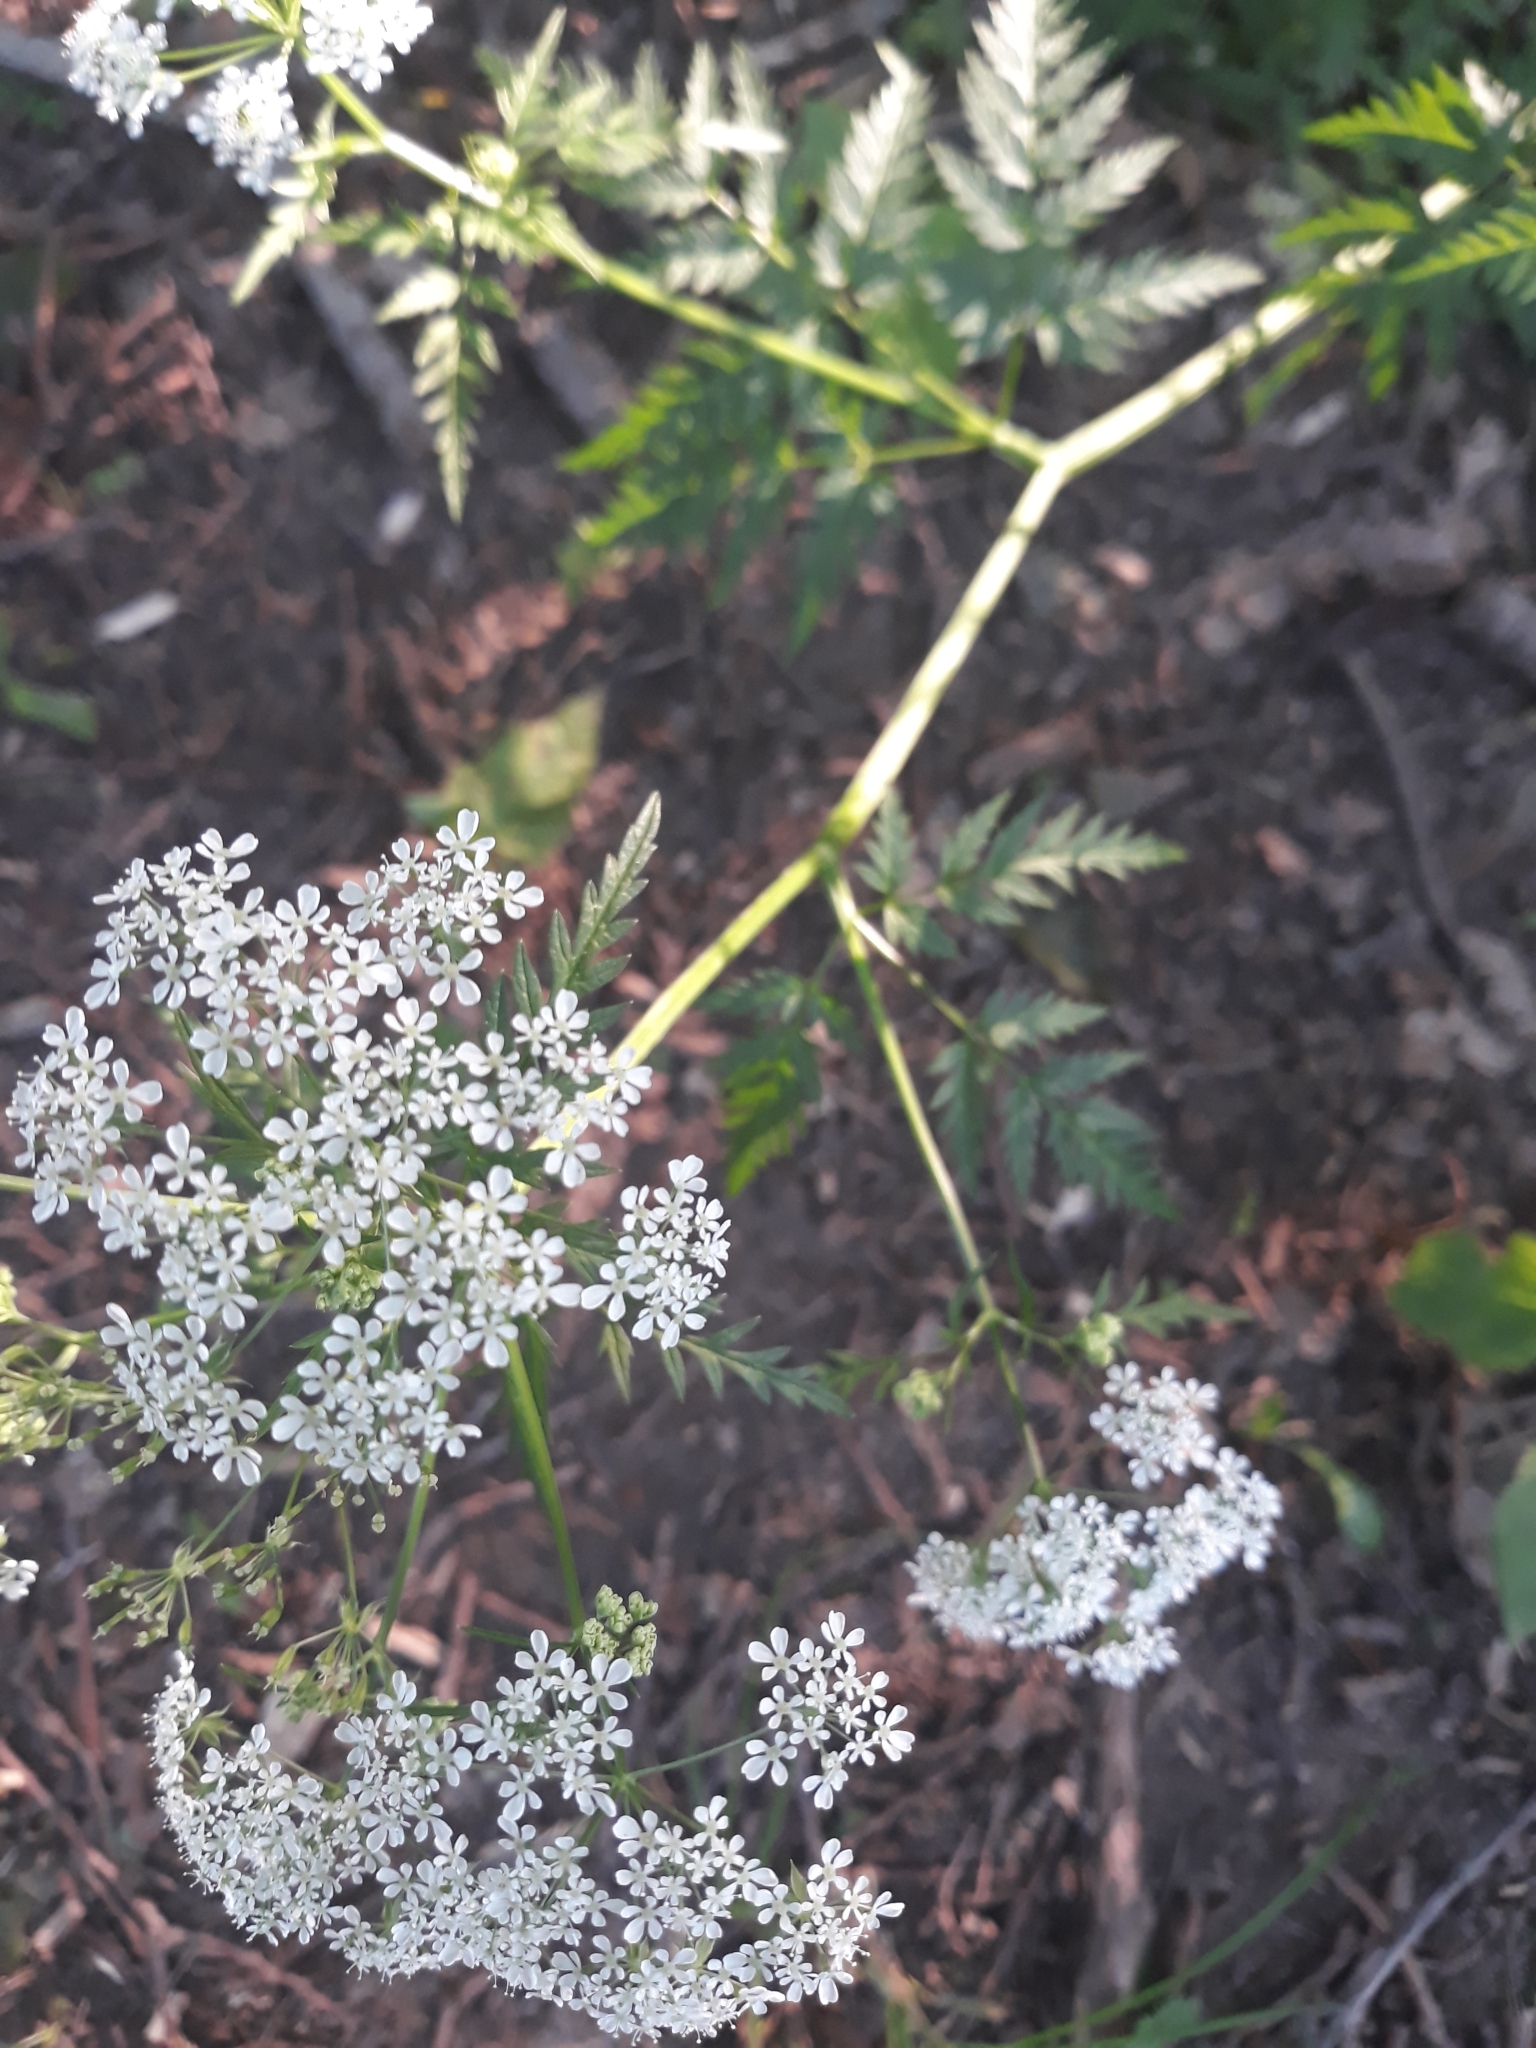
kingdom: Plantae
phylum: Tracheophyta
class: Magnoliopsida
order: Apiales
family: Apiaceae
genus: Anthriscus
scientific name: Anthriscus sylvestris
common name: Cow parsley
